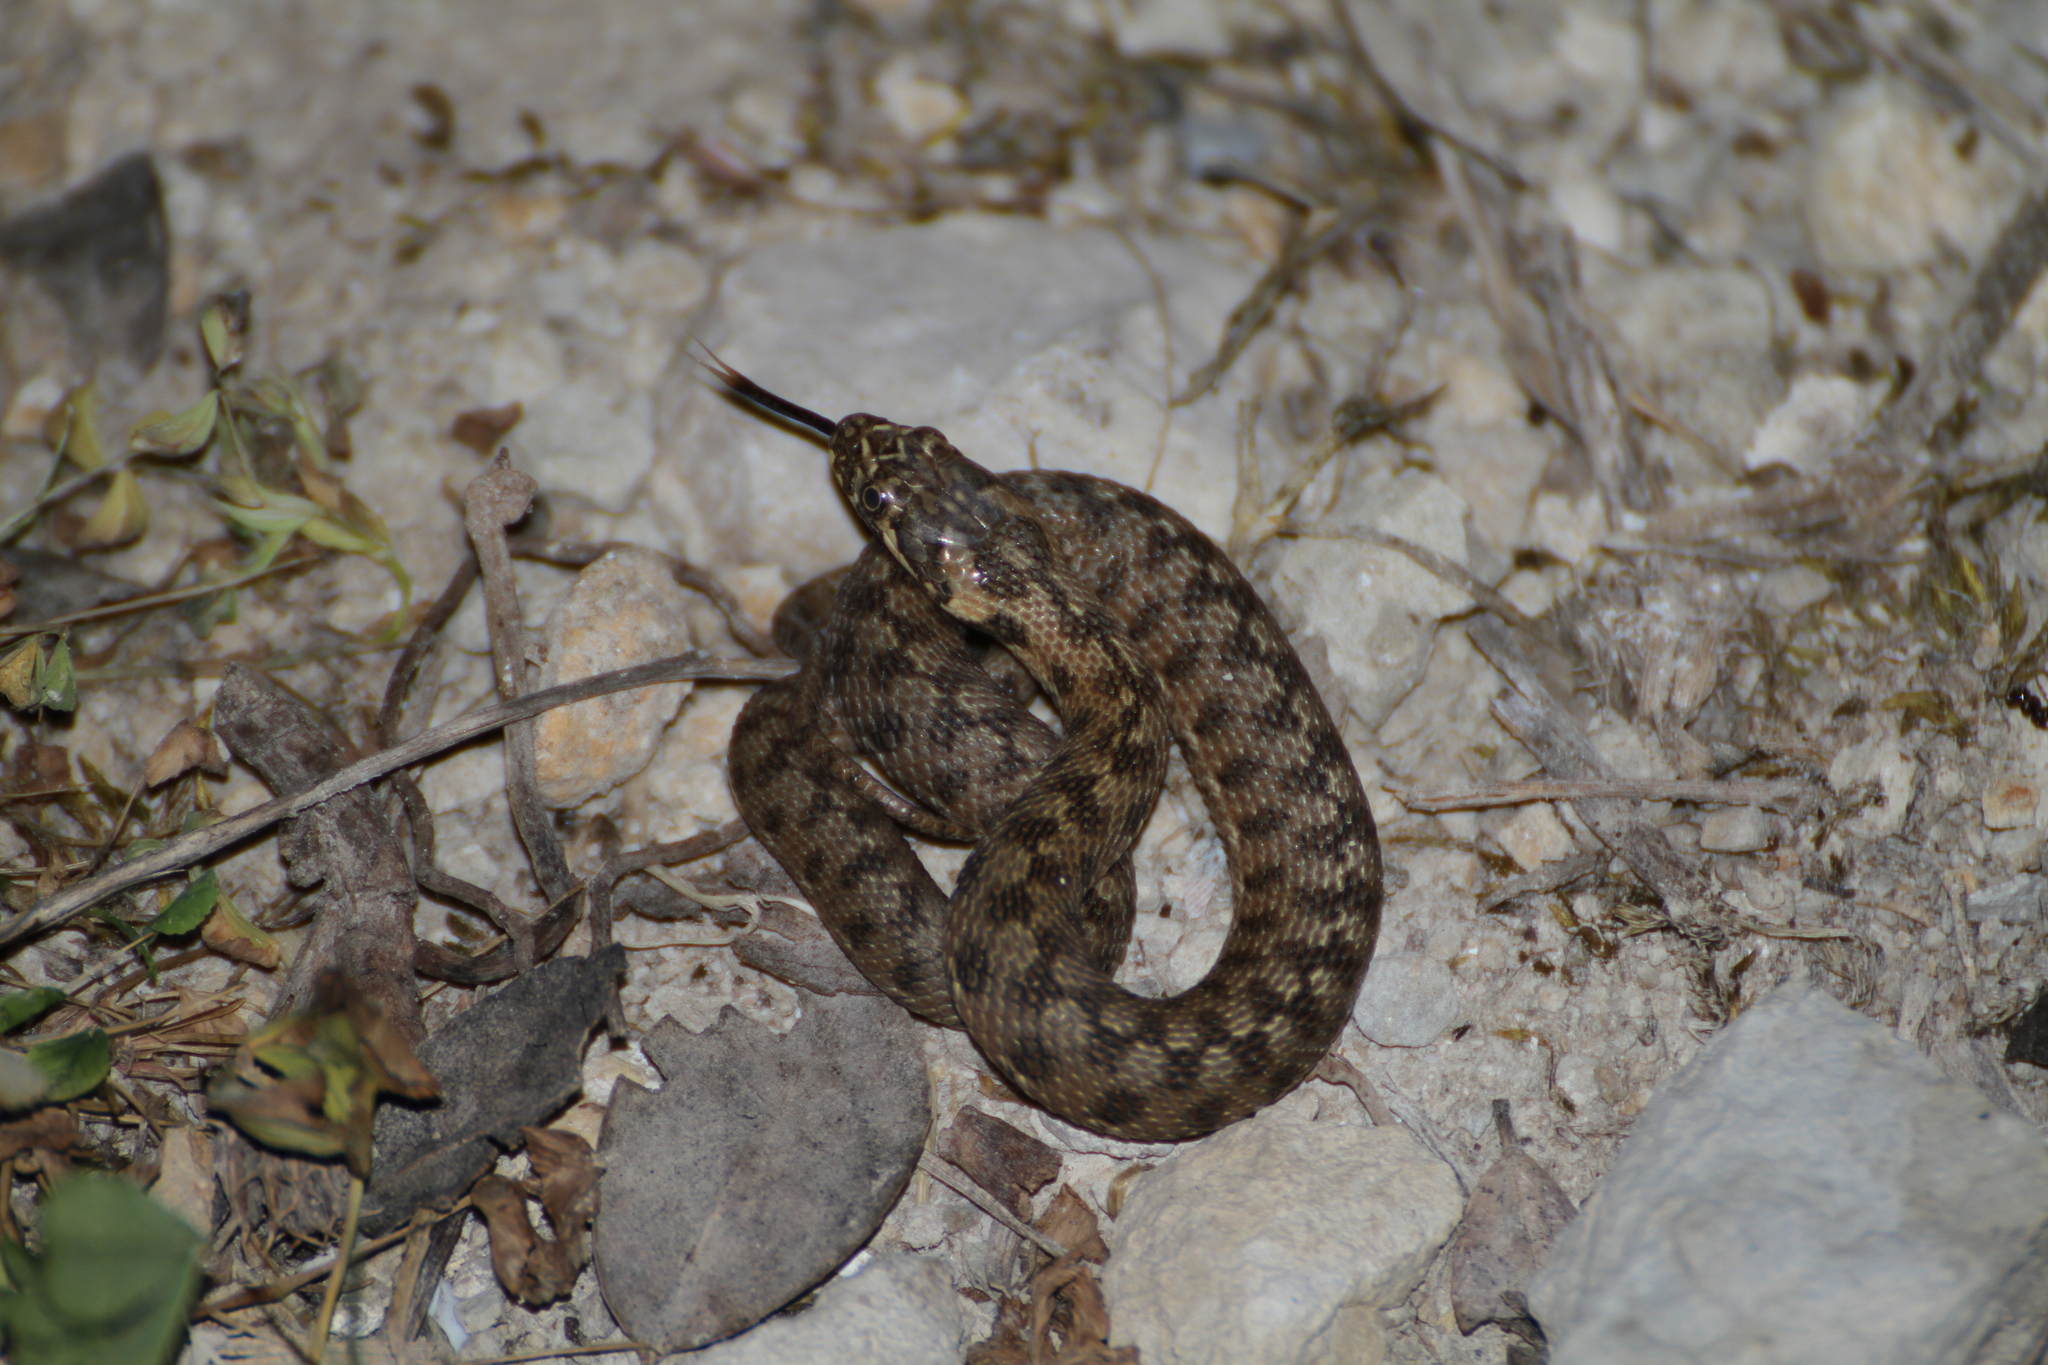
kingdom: Animalia
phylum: Chordata
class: Squamata
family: Colubridae
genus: Natrix
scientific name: Natrix maura
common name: Viperine water snake
